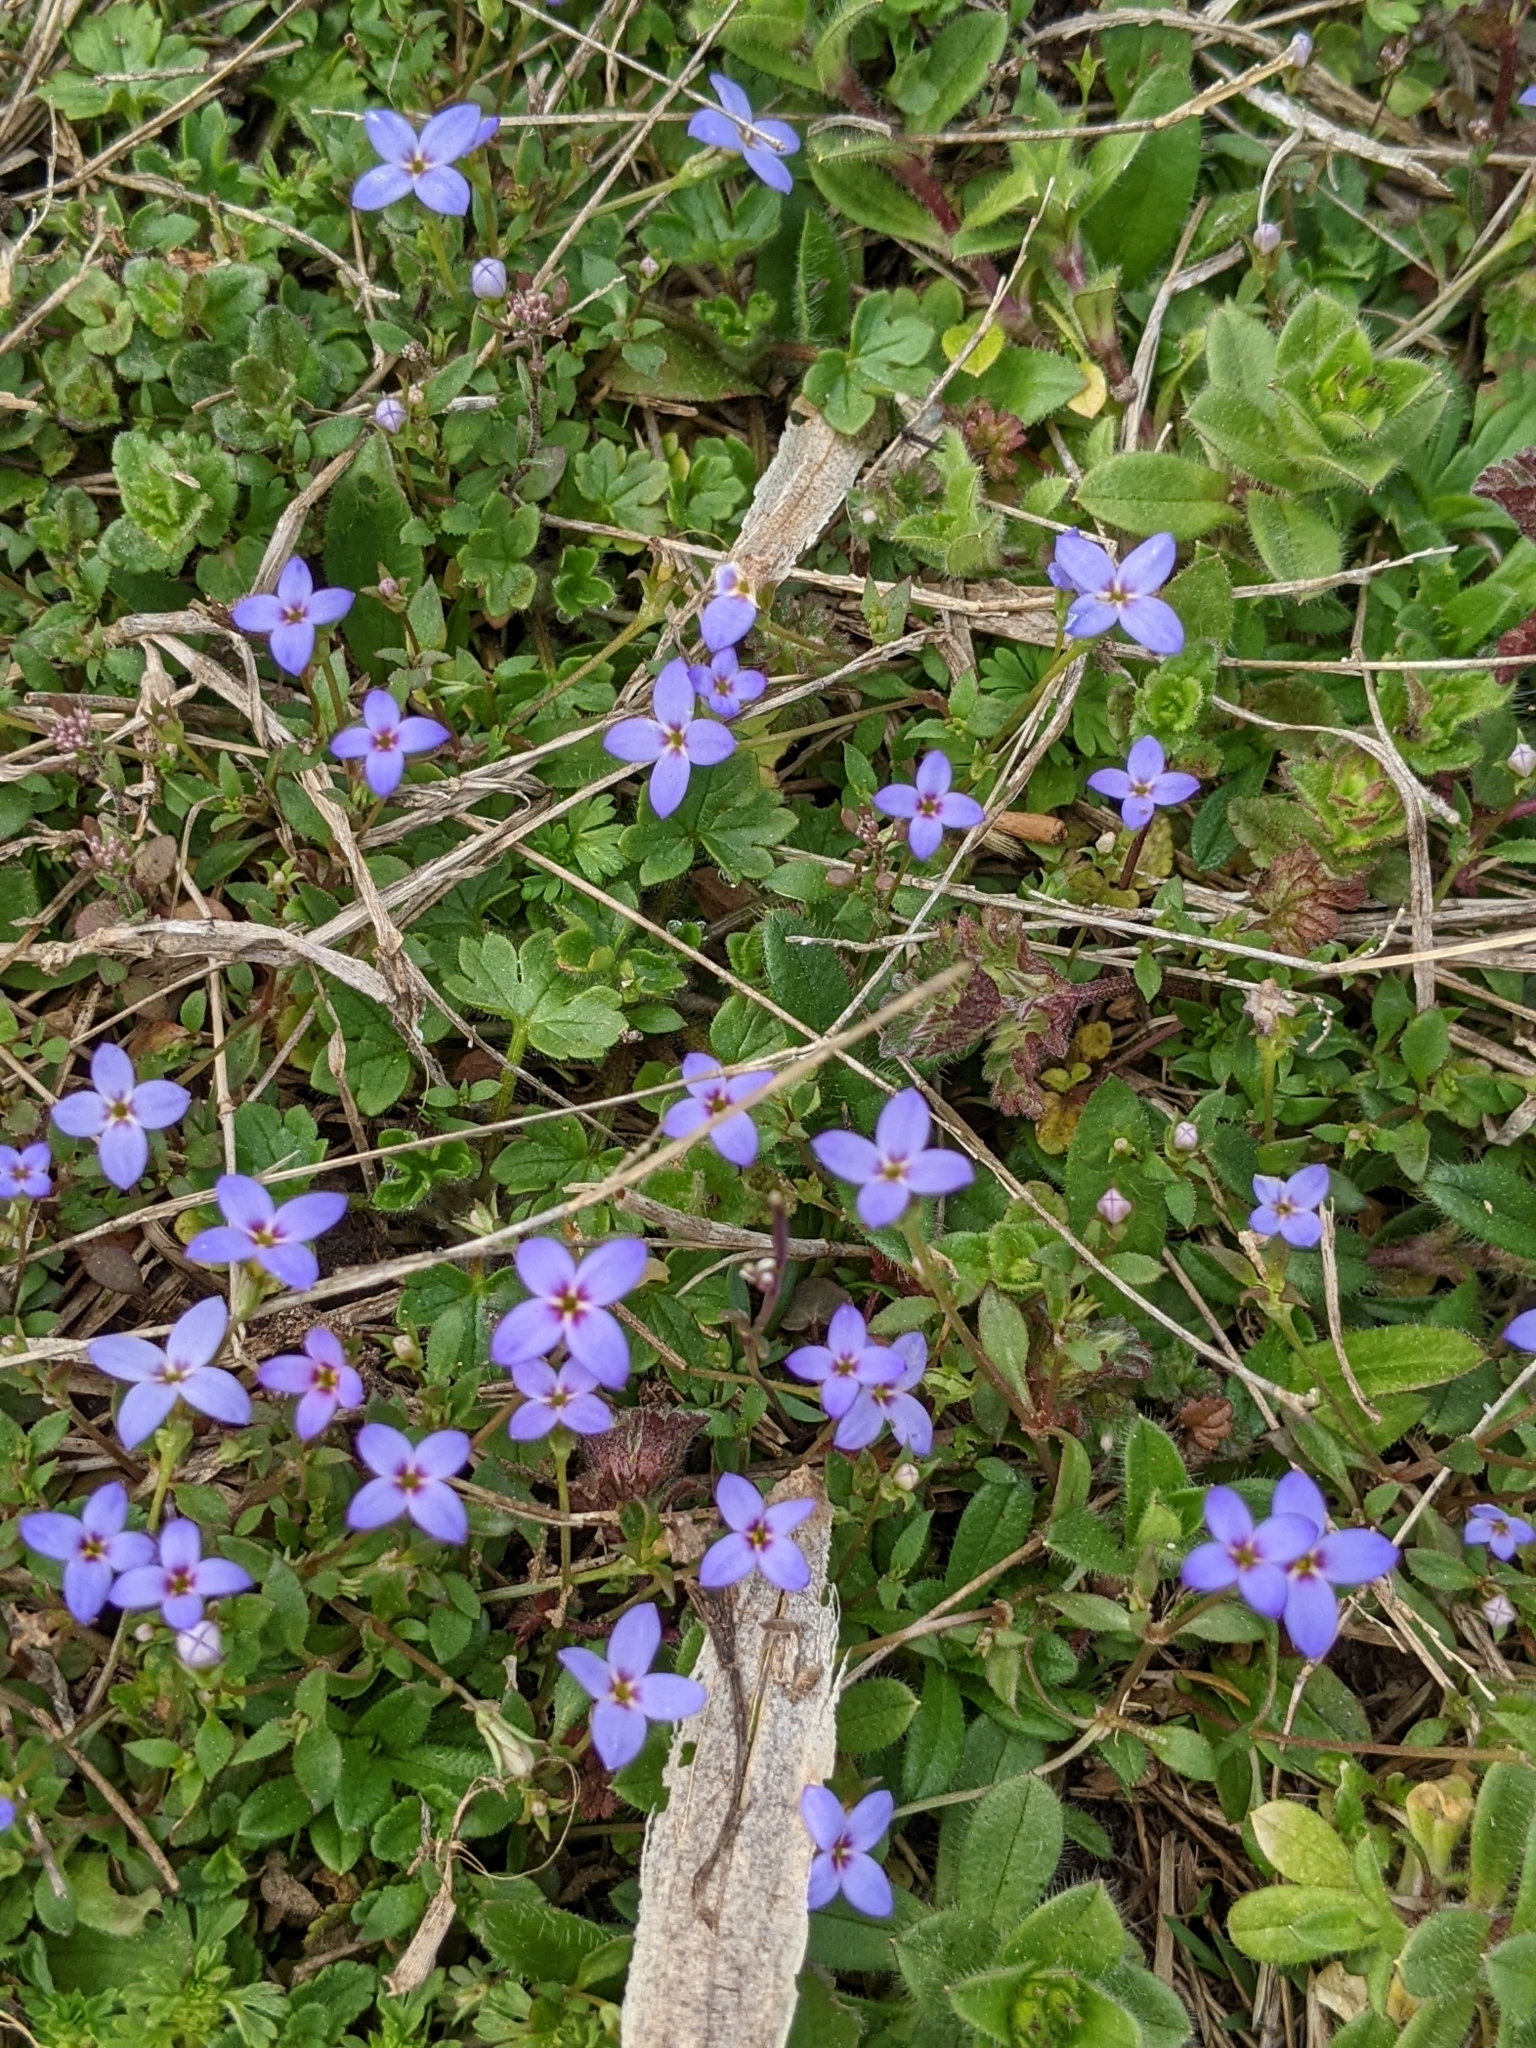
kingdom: Plantae
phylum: Tracheophyta
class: Magnoliopsida
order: Gentianales
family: Rubiaceae
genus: Houstonia
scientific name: Houstonia pusilla
